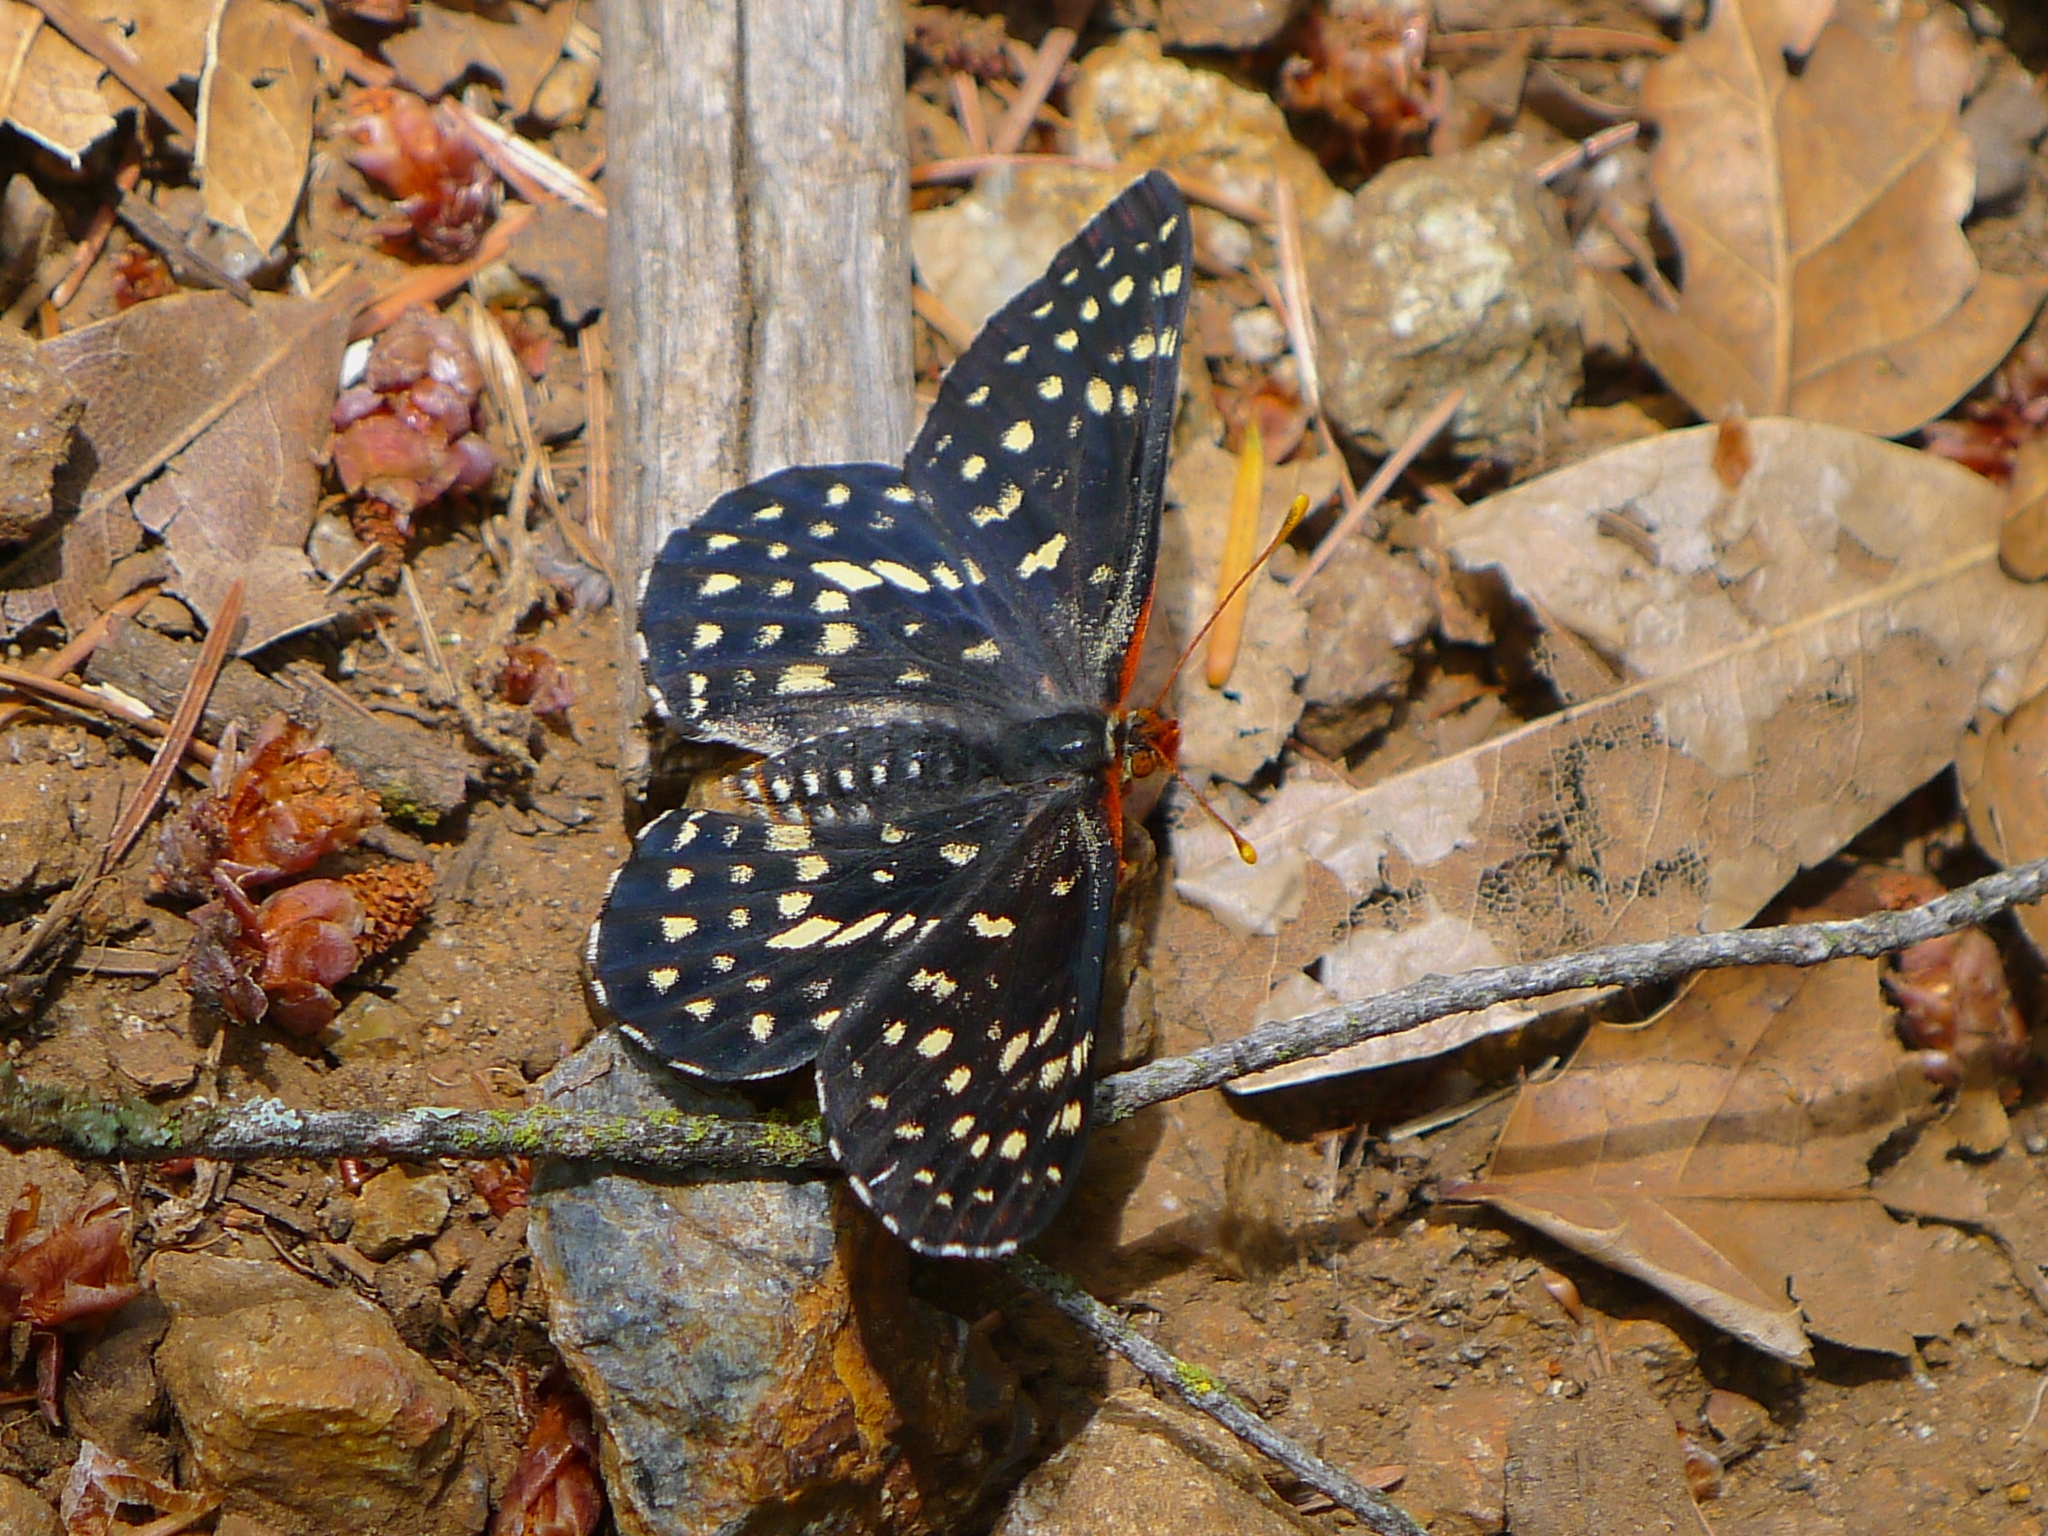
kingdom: Animalia
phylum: Arthropoda
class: Insecta
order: Lepidoptera
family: Nymphalidae
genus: Occidryas
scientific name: Occidryas chalcedona
